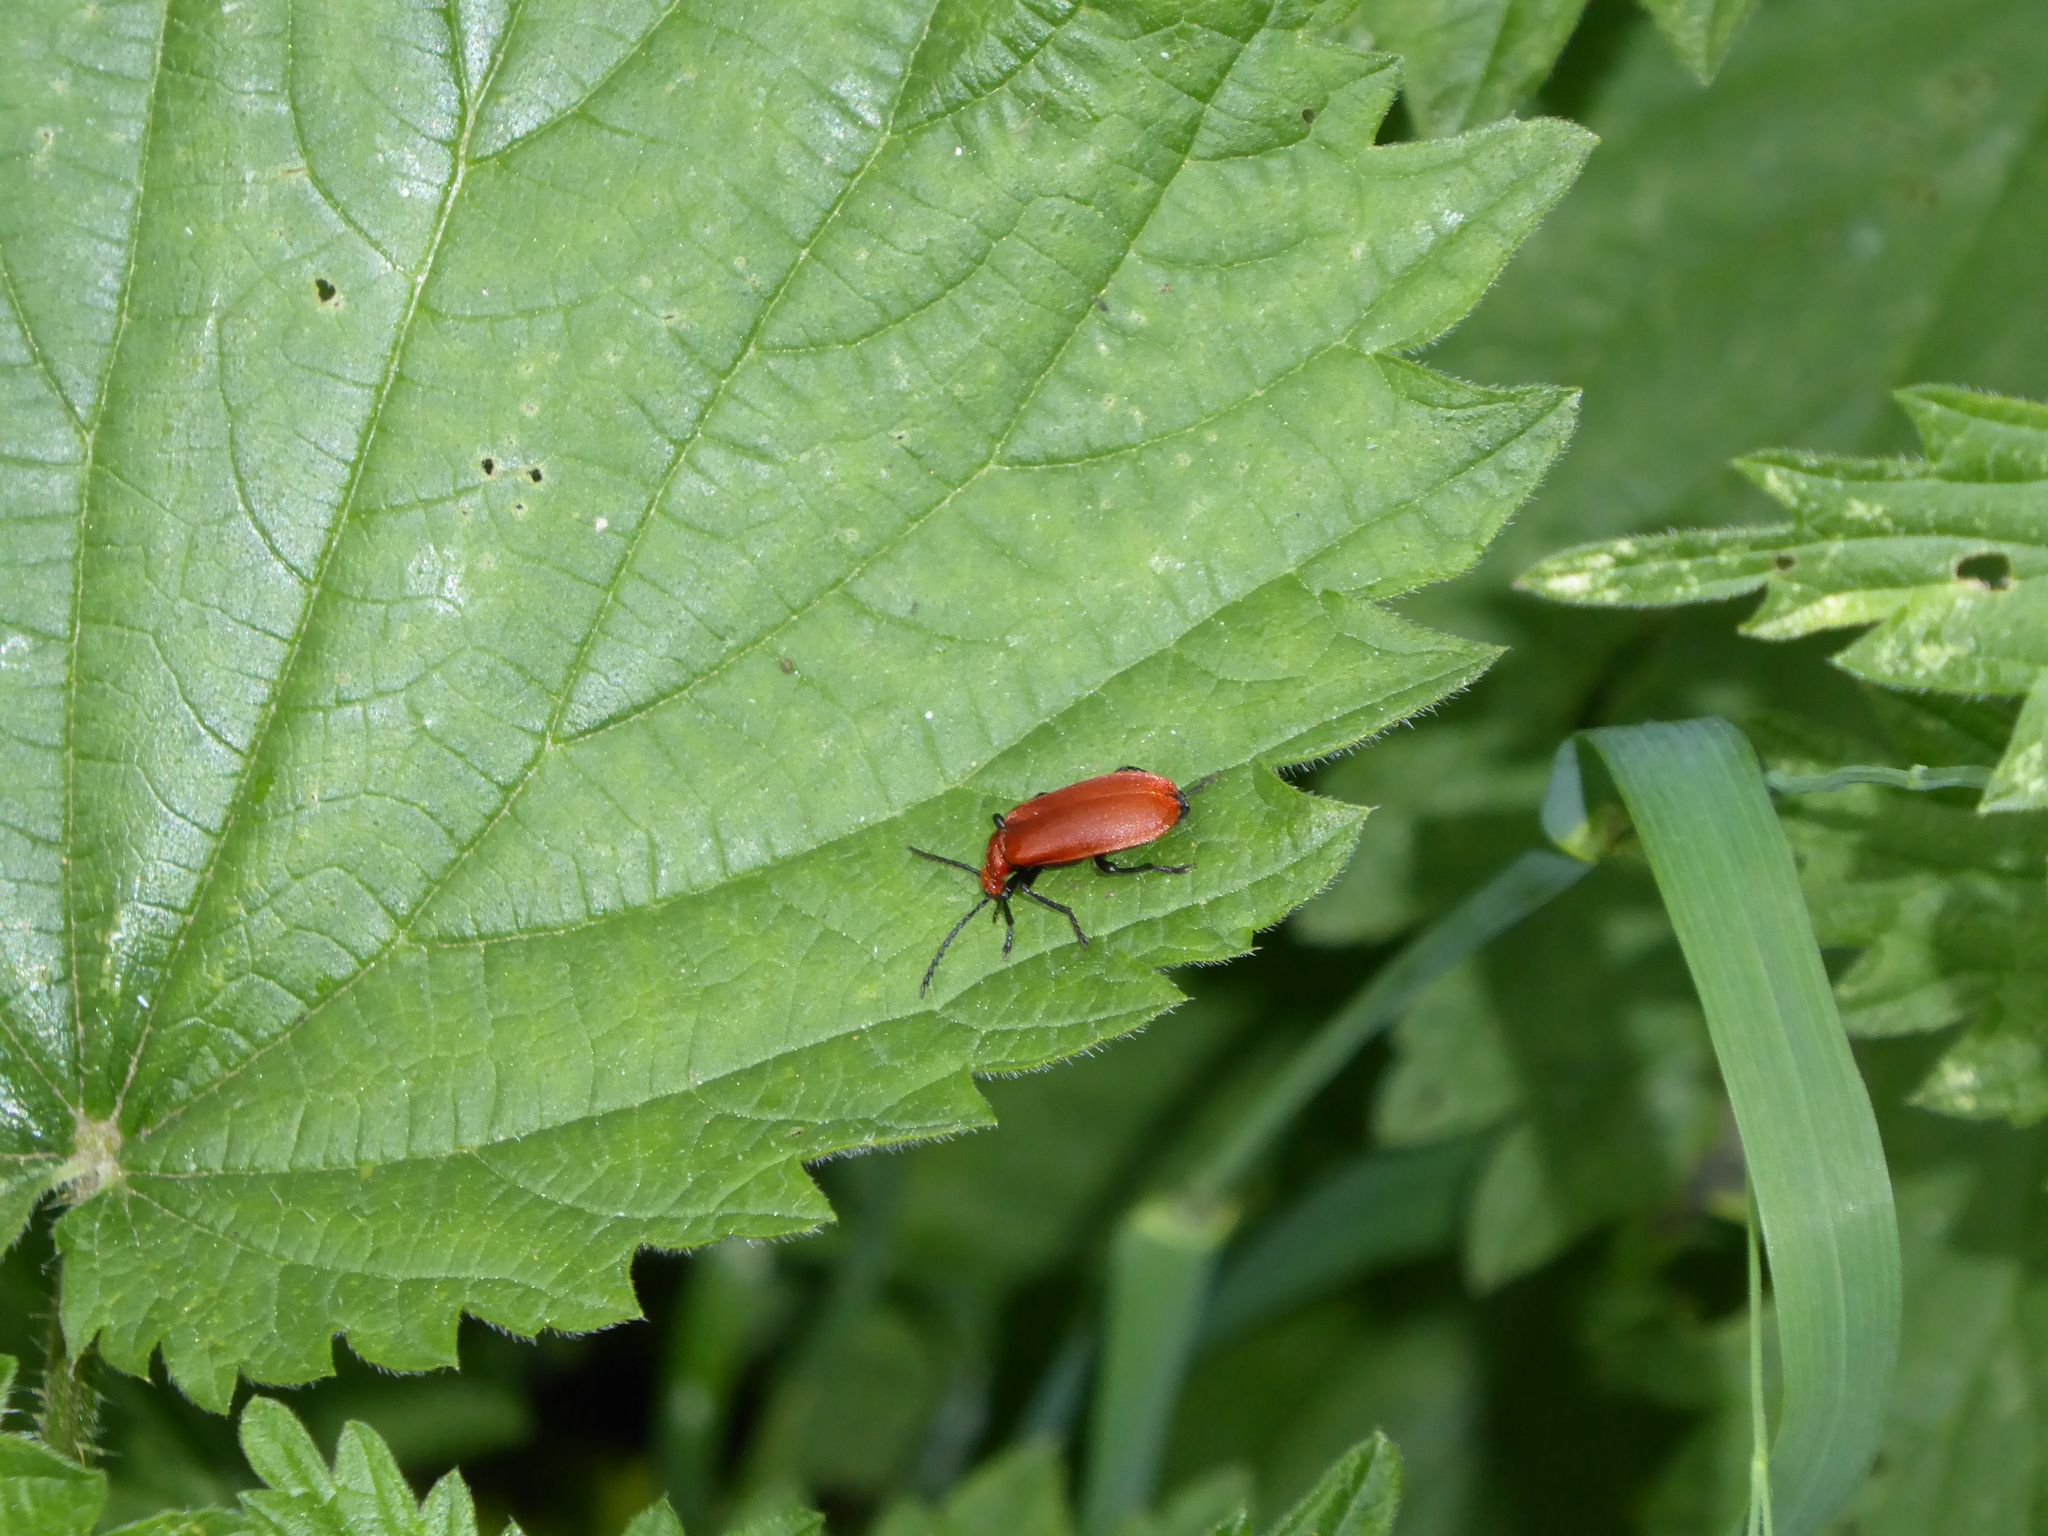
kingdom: Animalia
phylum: Arthropoda
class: Insecta
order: Coleoptera
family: Pyrochroidae
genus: Pyrochroa
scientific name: Pyrochroa serraticornis
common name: Red-headed cardinal beetle
